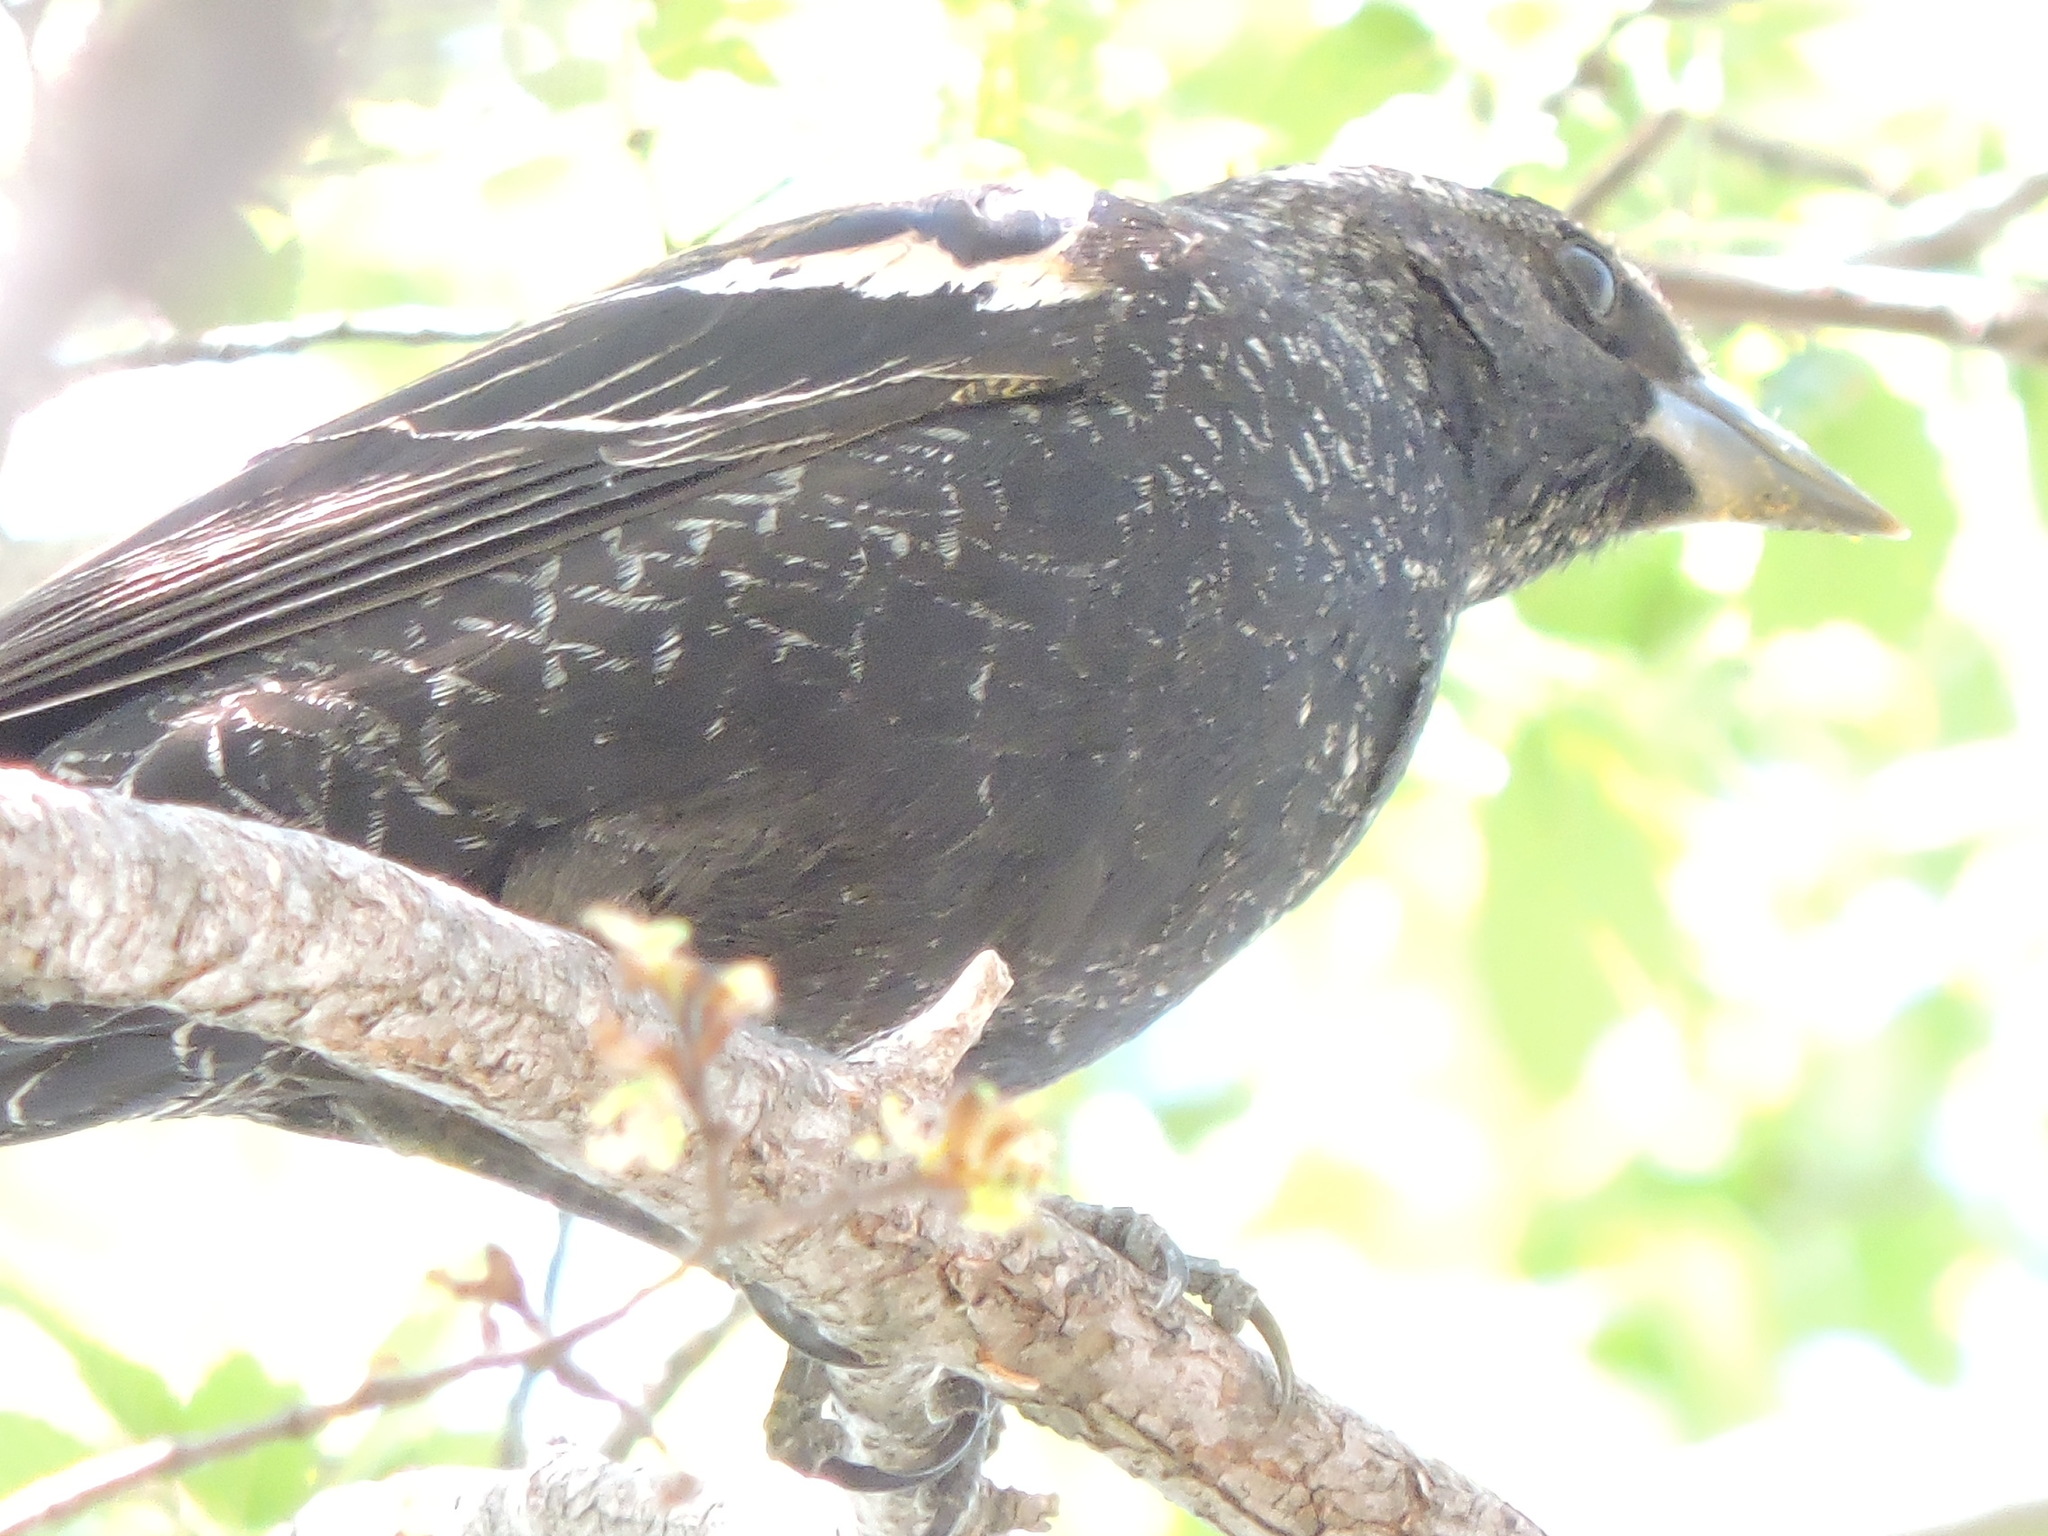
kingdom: Animalia
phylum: Chordata
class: Aves
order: Passeriformes
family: Icteridae
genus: Agelaius
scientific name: Agelaius phoeniceus
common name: Red-winged blackbird
